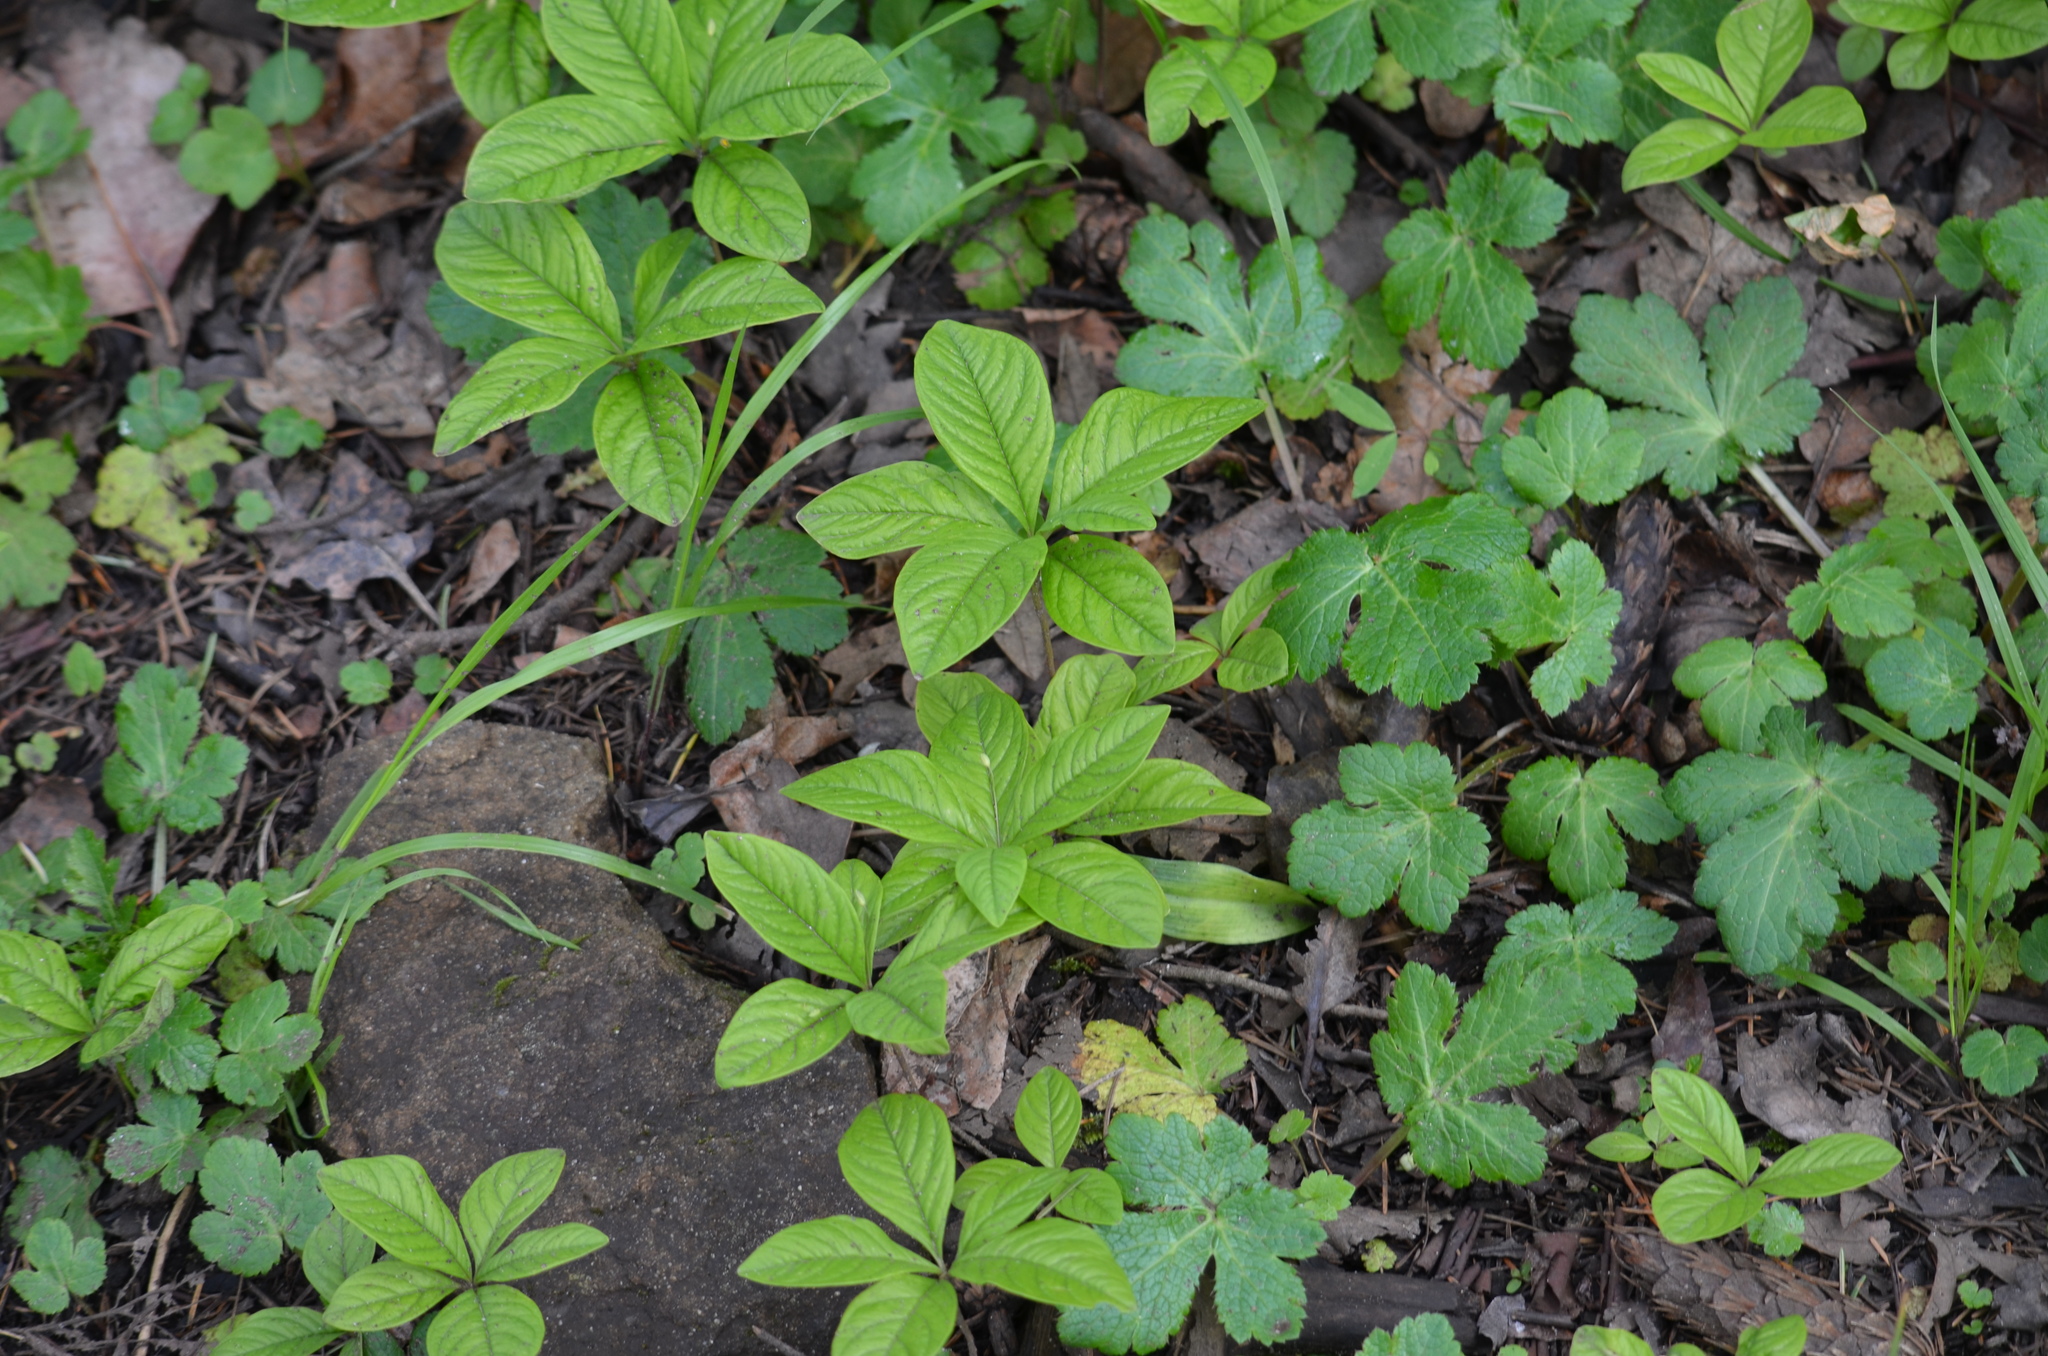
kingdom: Plantae
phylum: Tracheophyta
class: Magnoliopsida
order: Ericales
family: Primulaceae
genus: Lysimachia
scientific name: Lysimachia latifolia
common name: Pacific starflower
